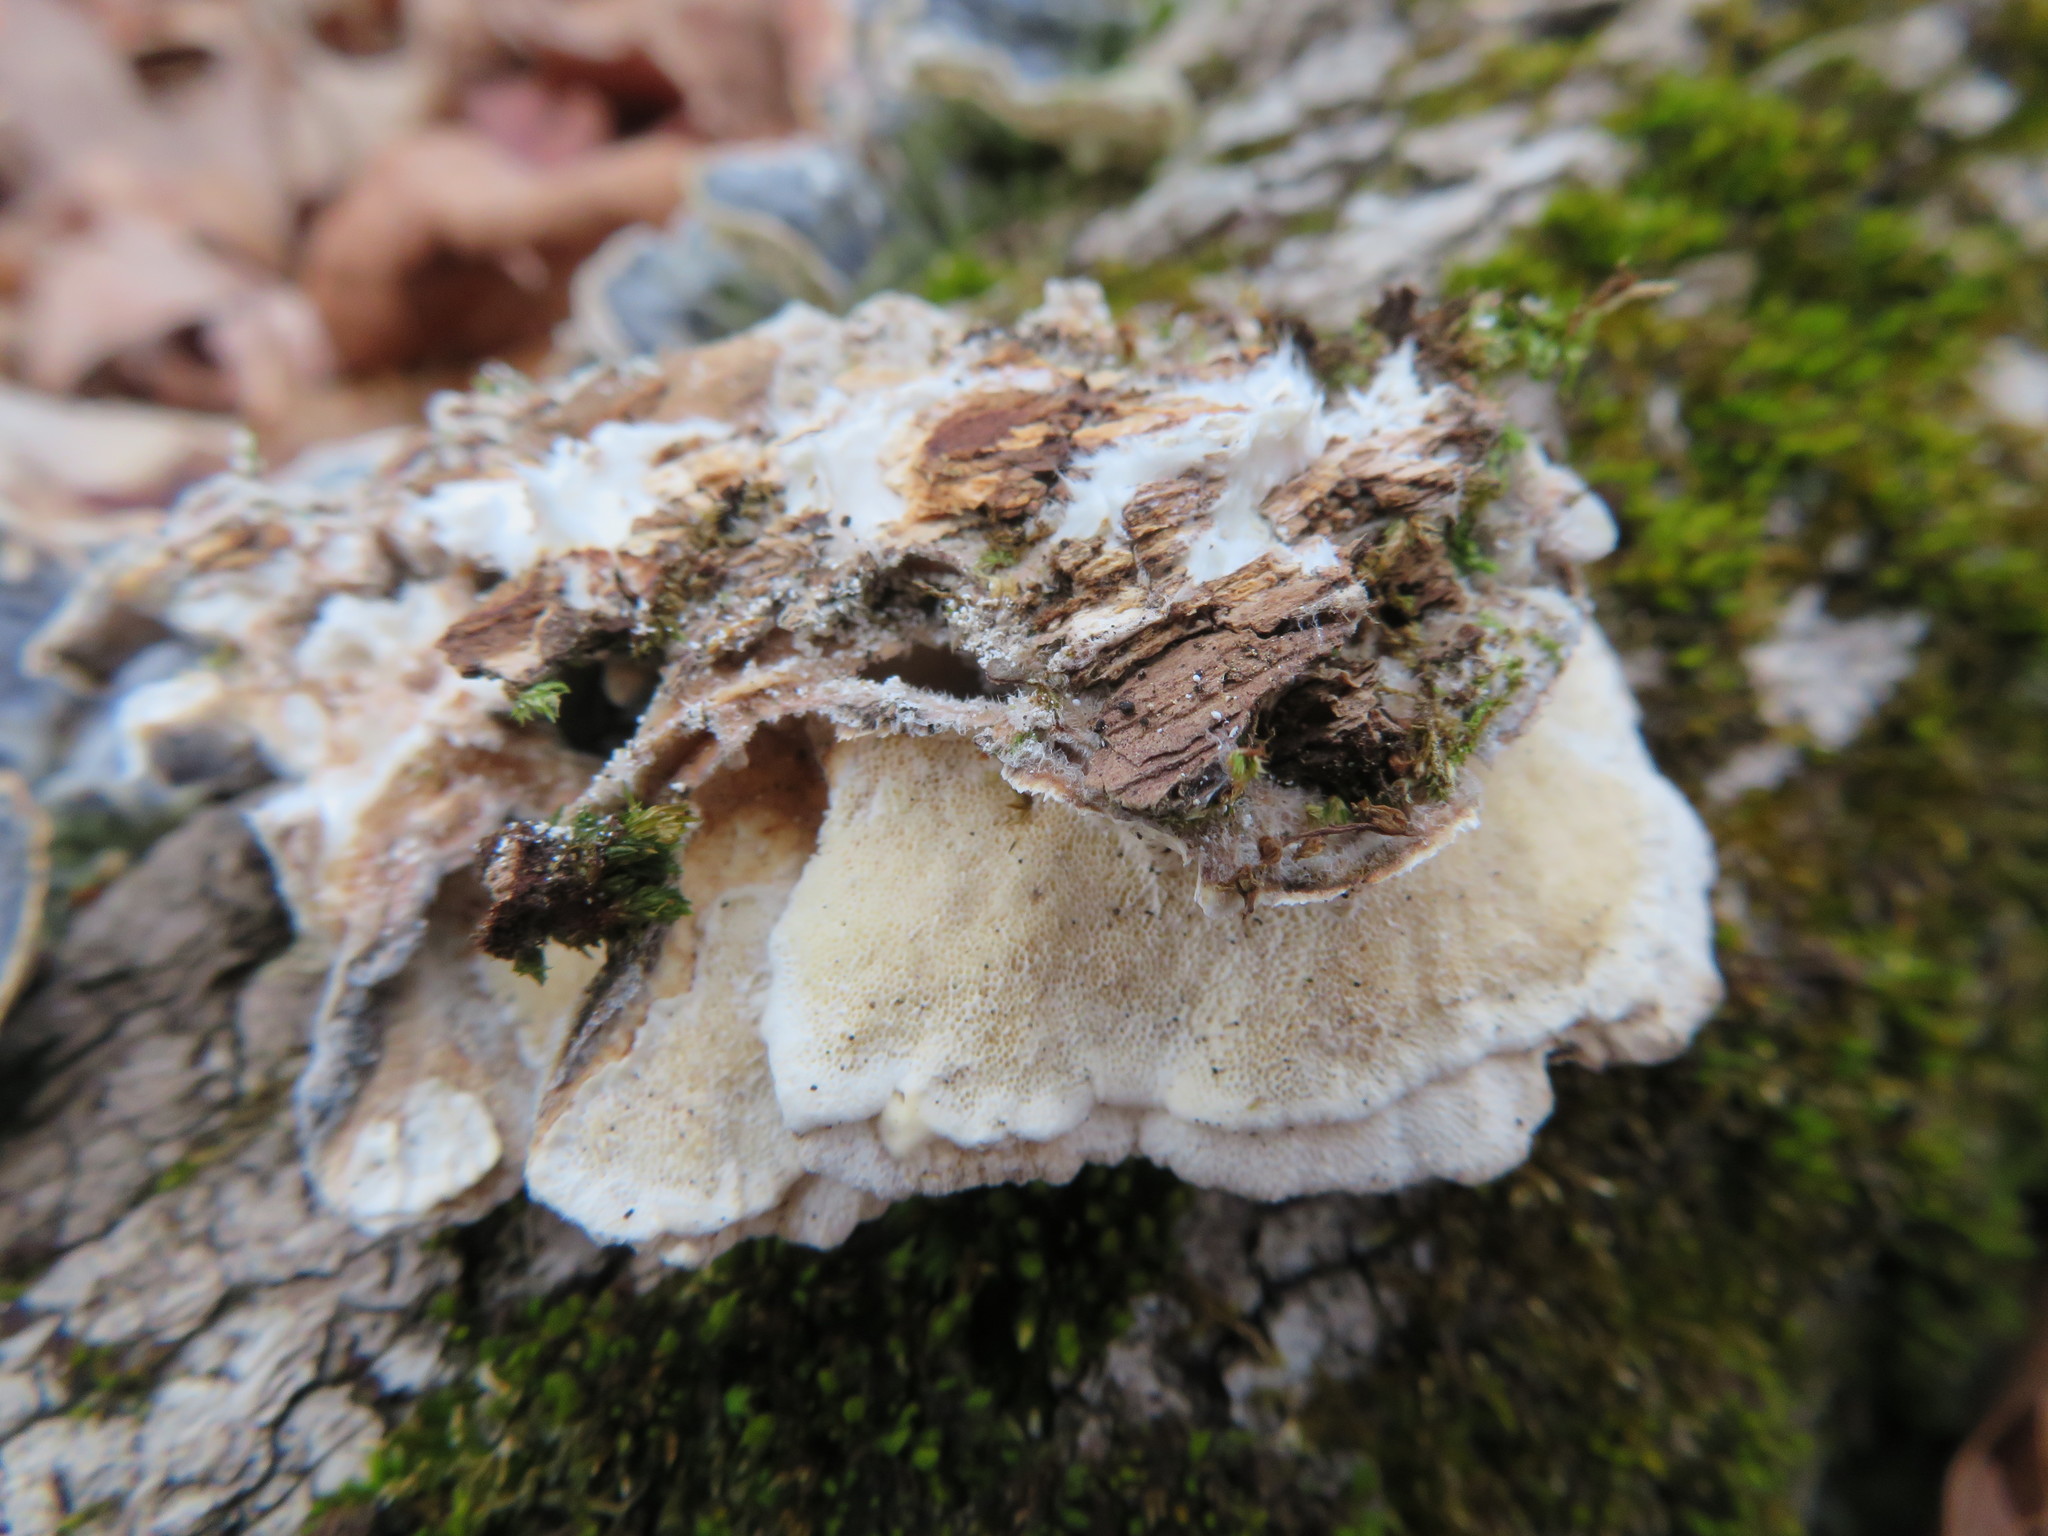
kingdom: Fungi
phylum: Basidiomycota
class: Agaricomycetes
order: Polyporales
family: Polyporaceae
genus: Trametes
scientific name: Trametes versicolor
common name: Turkeytail
